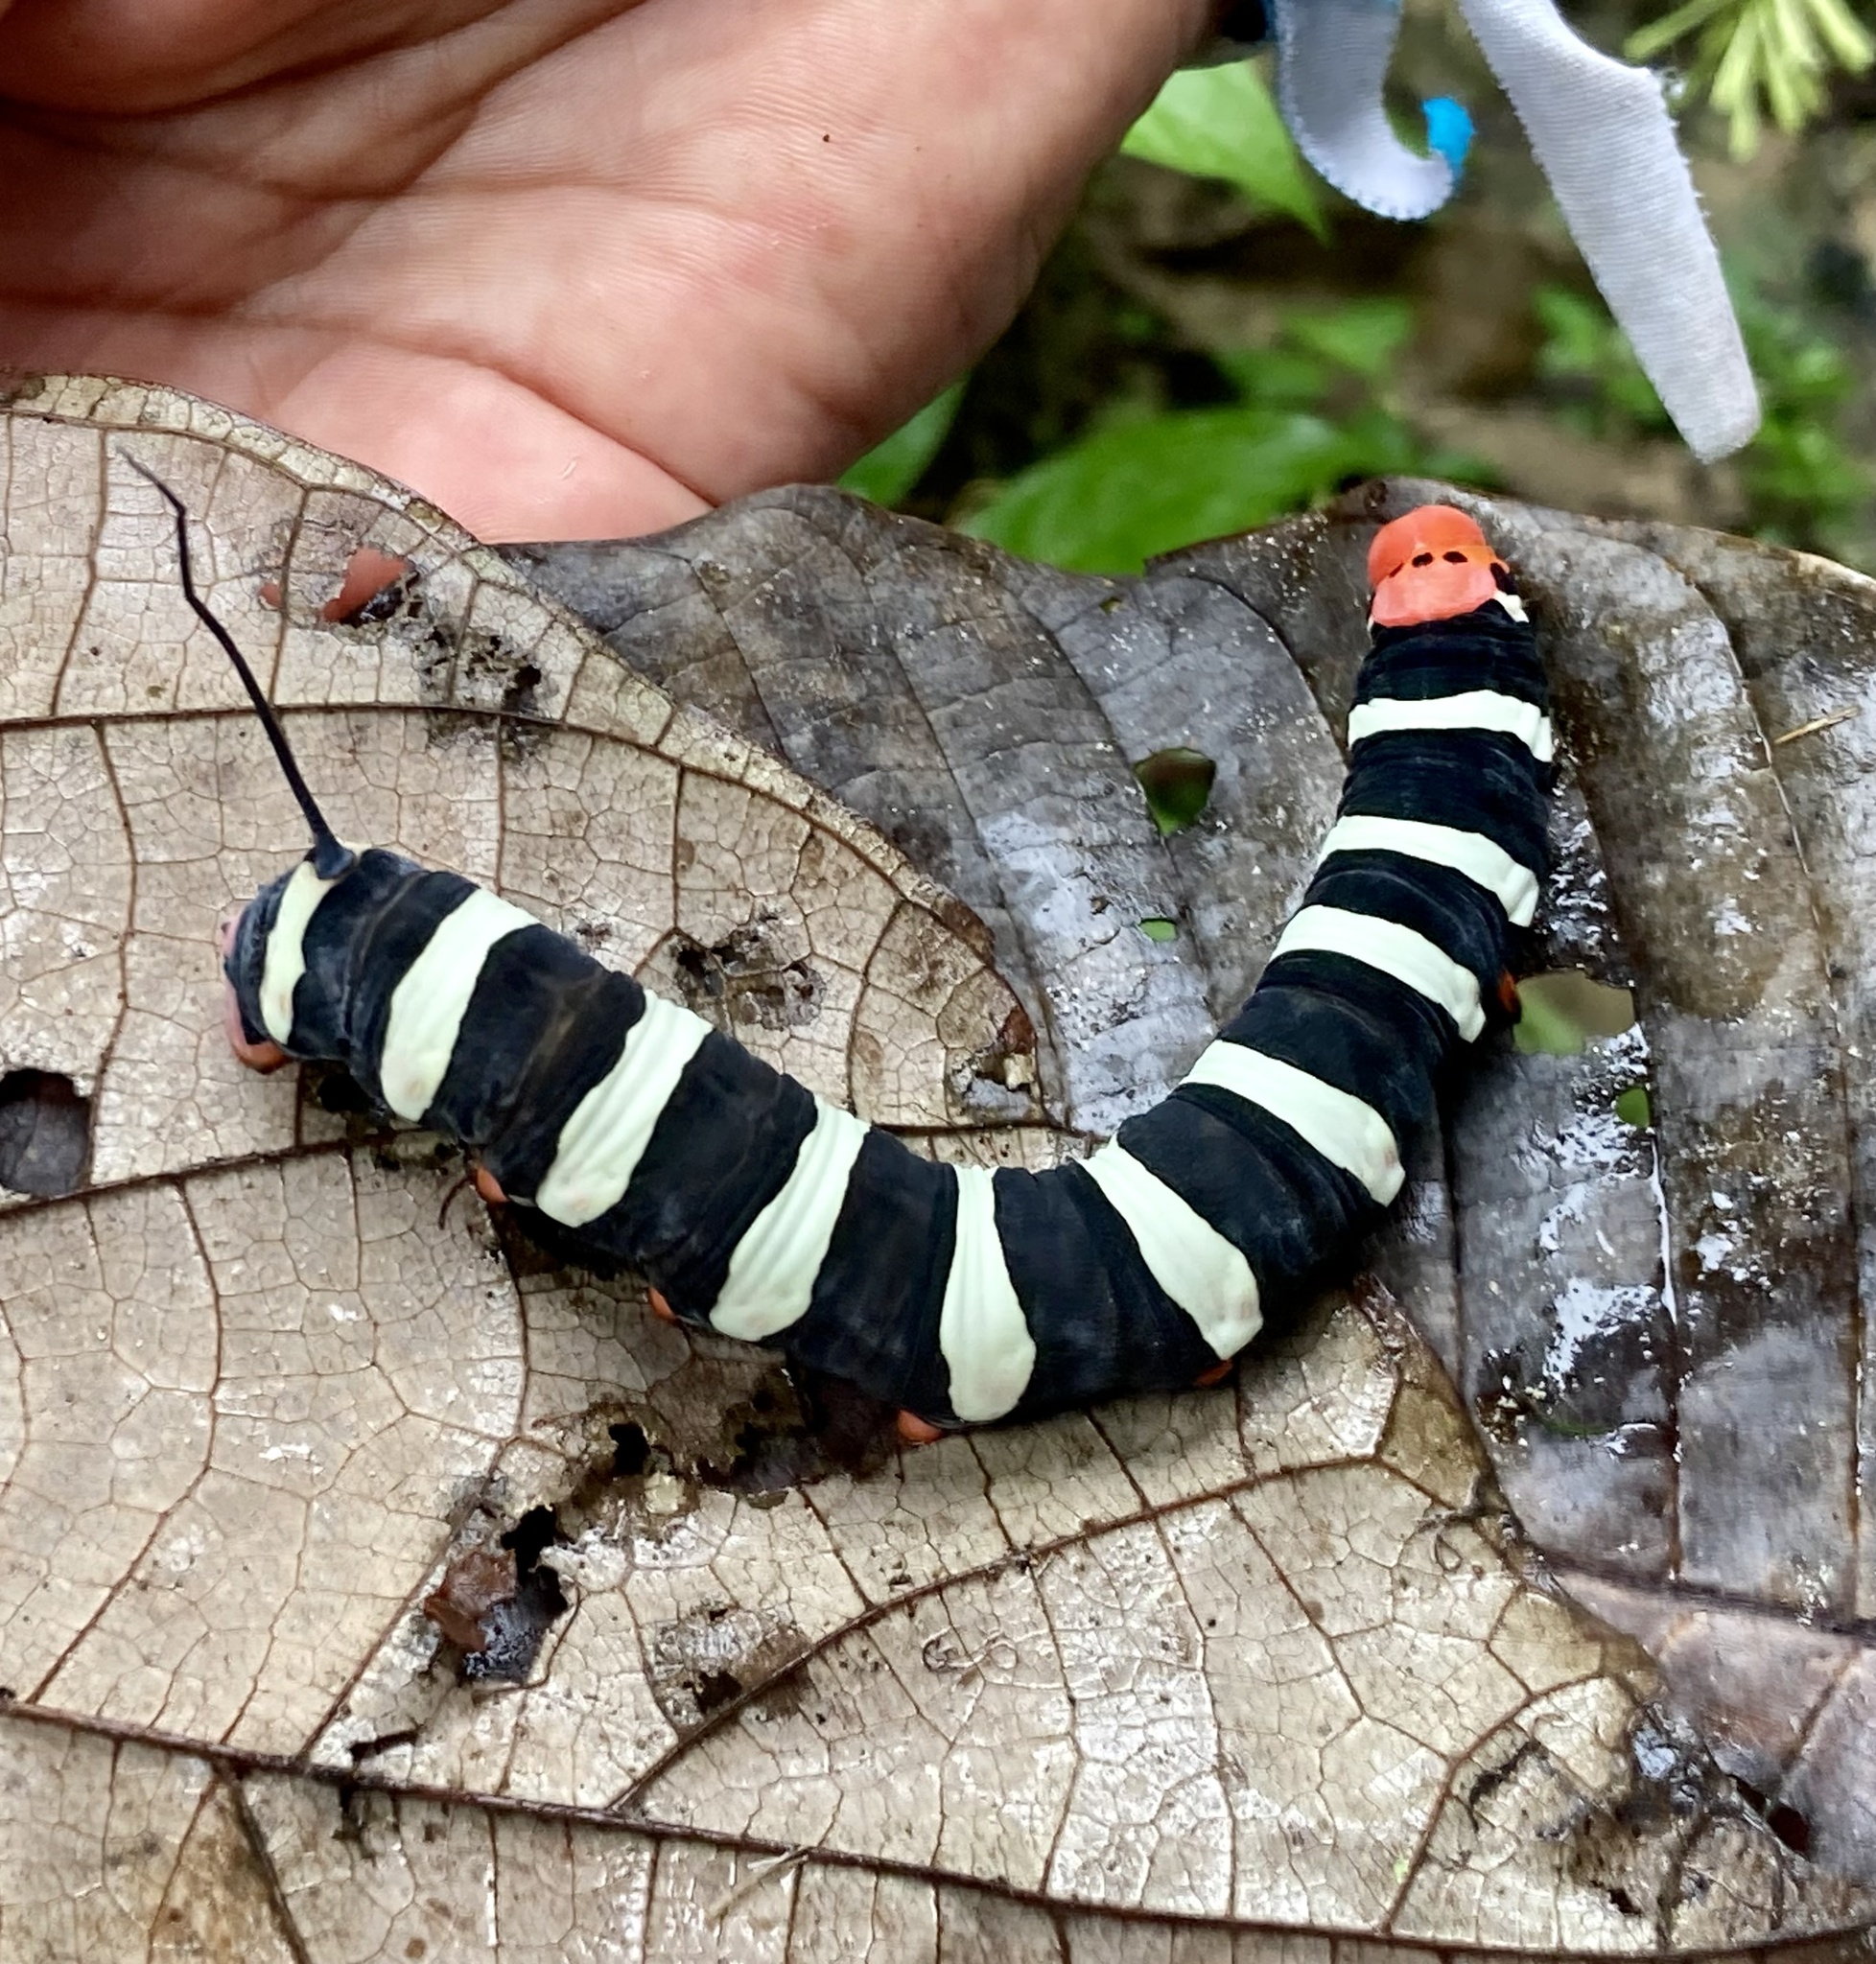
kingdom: Animalia
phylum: Arthropoda
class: Insecta
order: Lepidoptera
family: Sphingidae
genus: Isognathus
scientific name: Isognathus swainsoni
